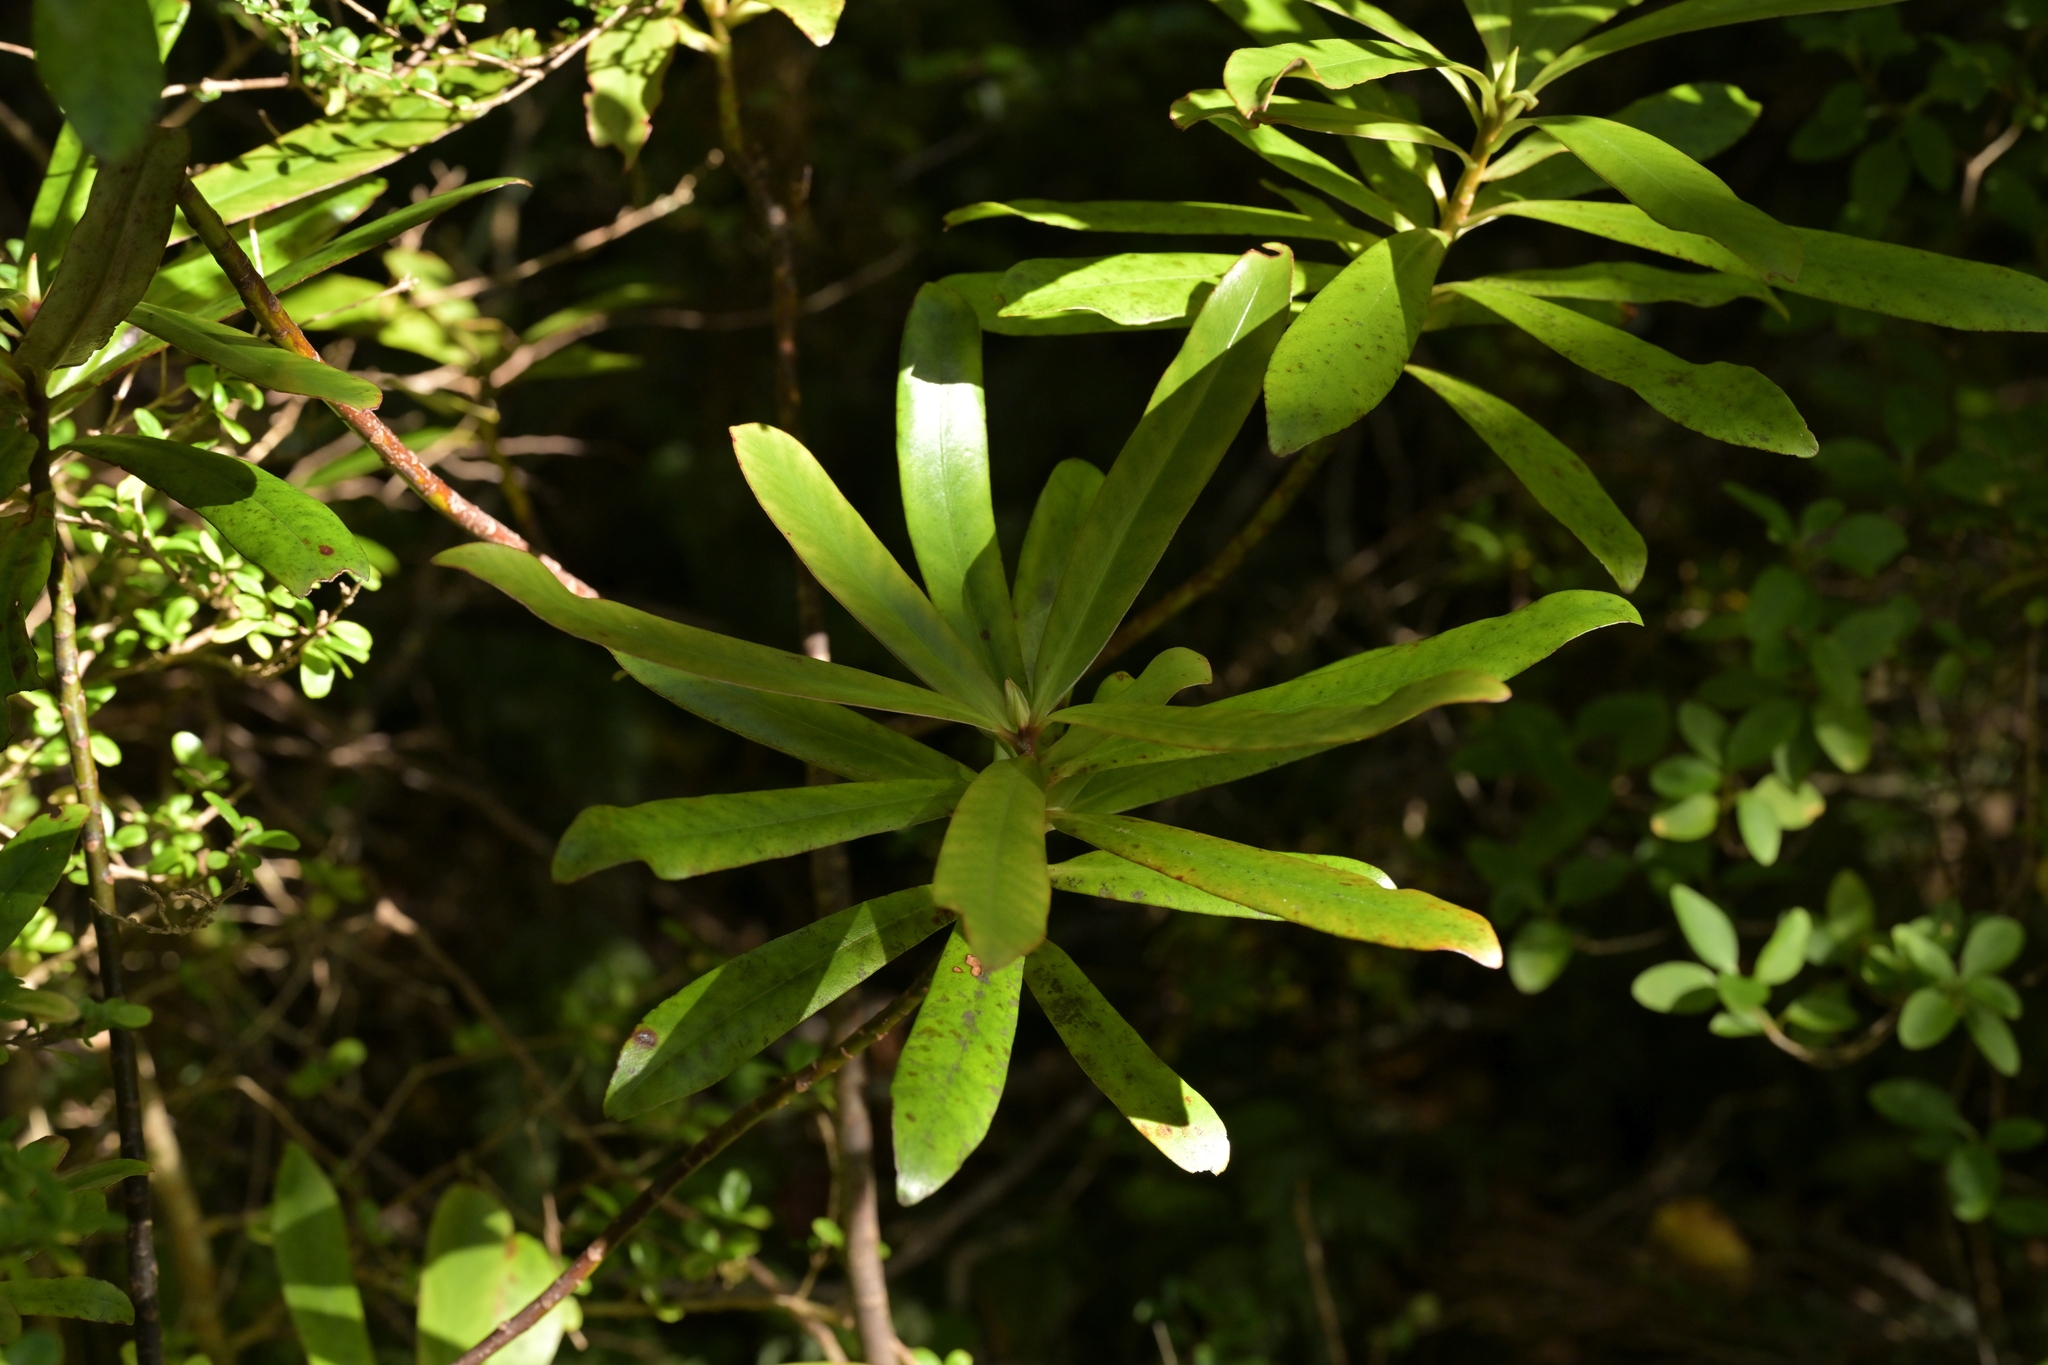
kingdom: Plantae
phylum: Tracheophyta
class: Magnoliopsida
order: Ericales
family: Primulaceae
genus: Myrsine
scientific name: Myrsine salicina
